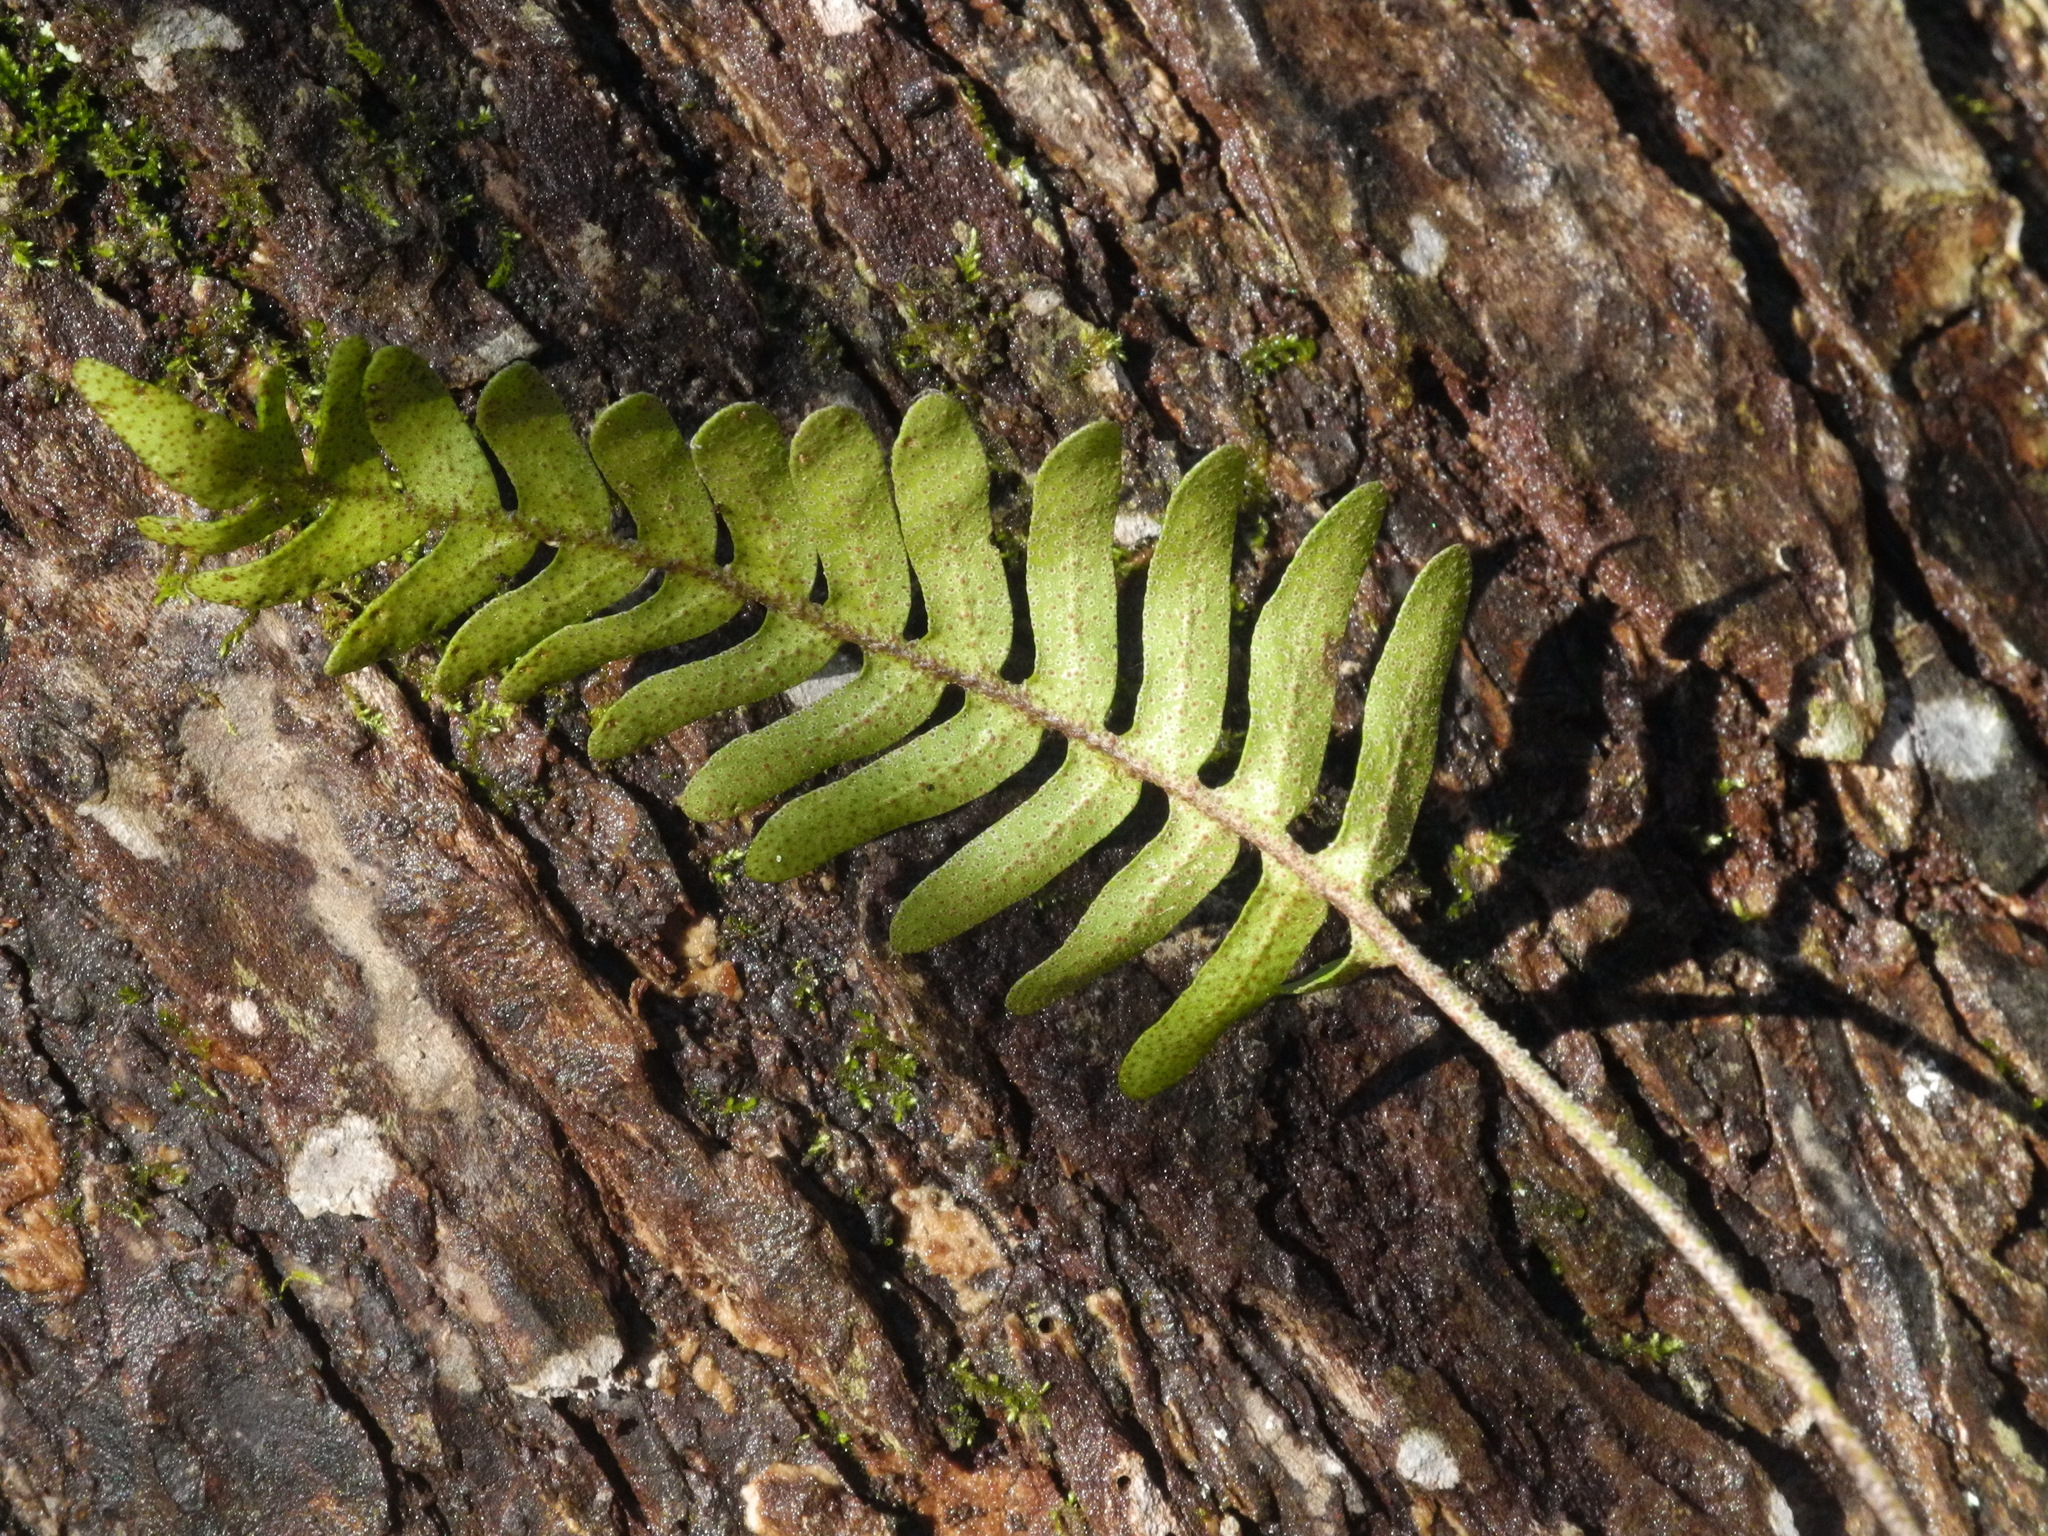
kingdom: Plantae
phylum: Tracheophyta
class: Polypodiopsida
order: Polypodiales
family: Polypodiaceae
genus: Pleopeltis
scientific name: Pleopeltis michauxiana
